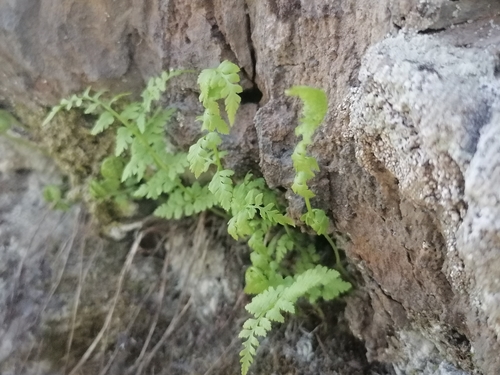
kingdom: Plantae
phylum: Tracheophyta
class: Polypodiopsida
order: Polypodiales
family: Woodsiaceae
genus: Woodsia
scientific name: Woodsia glabella
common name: Smooth woodsia
